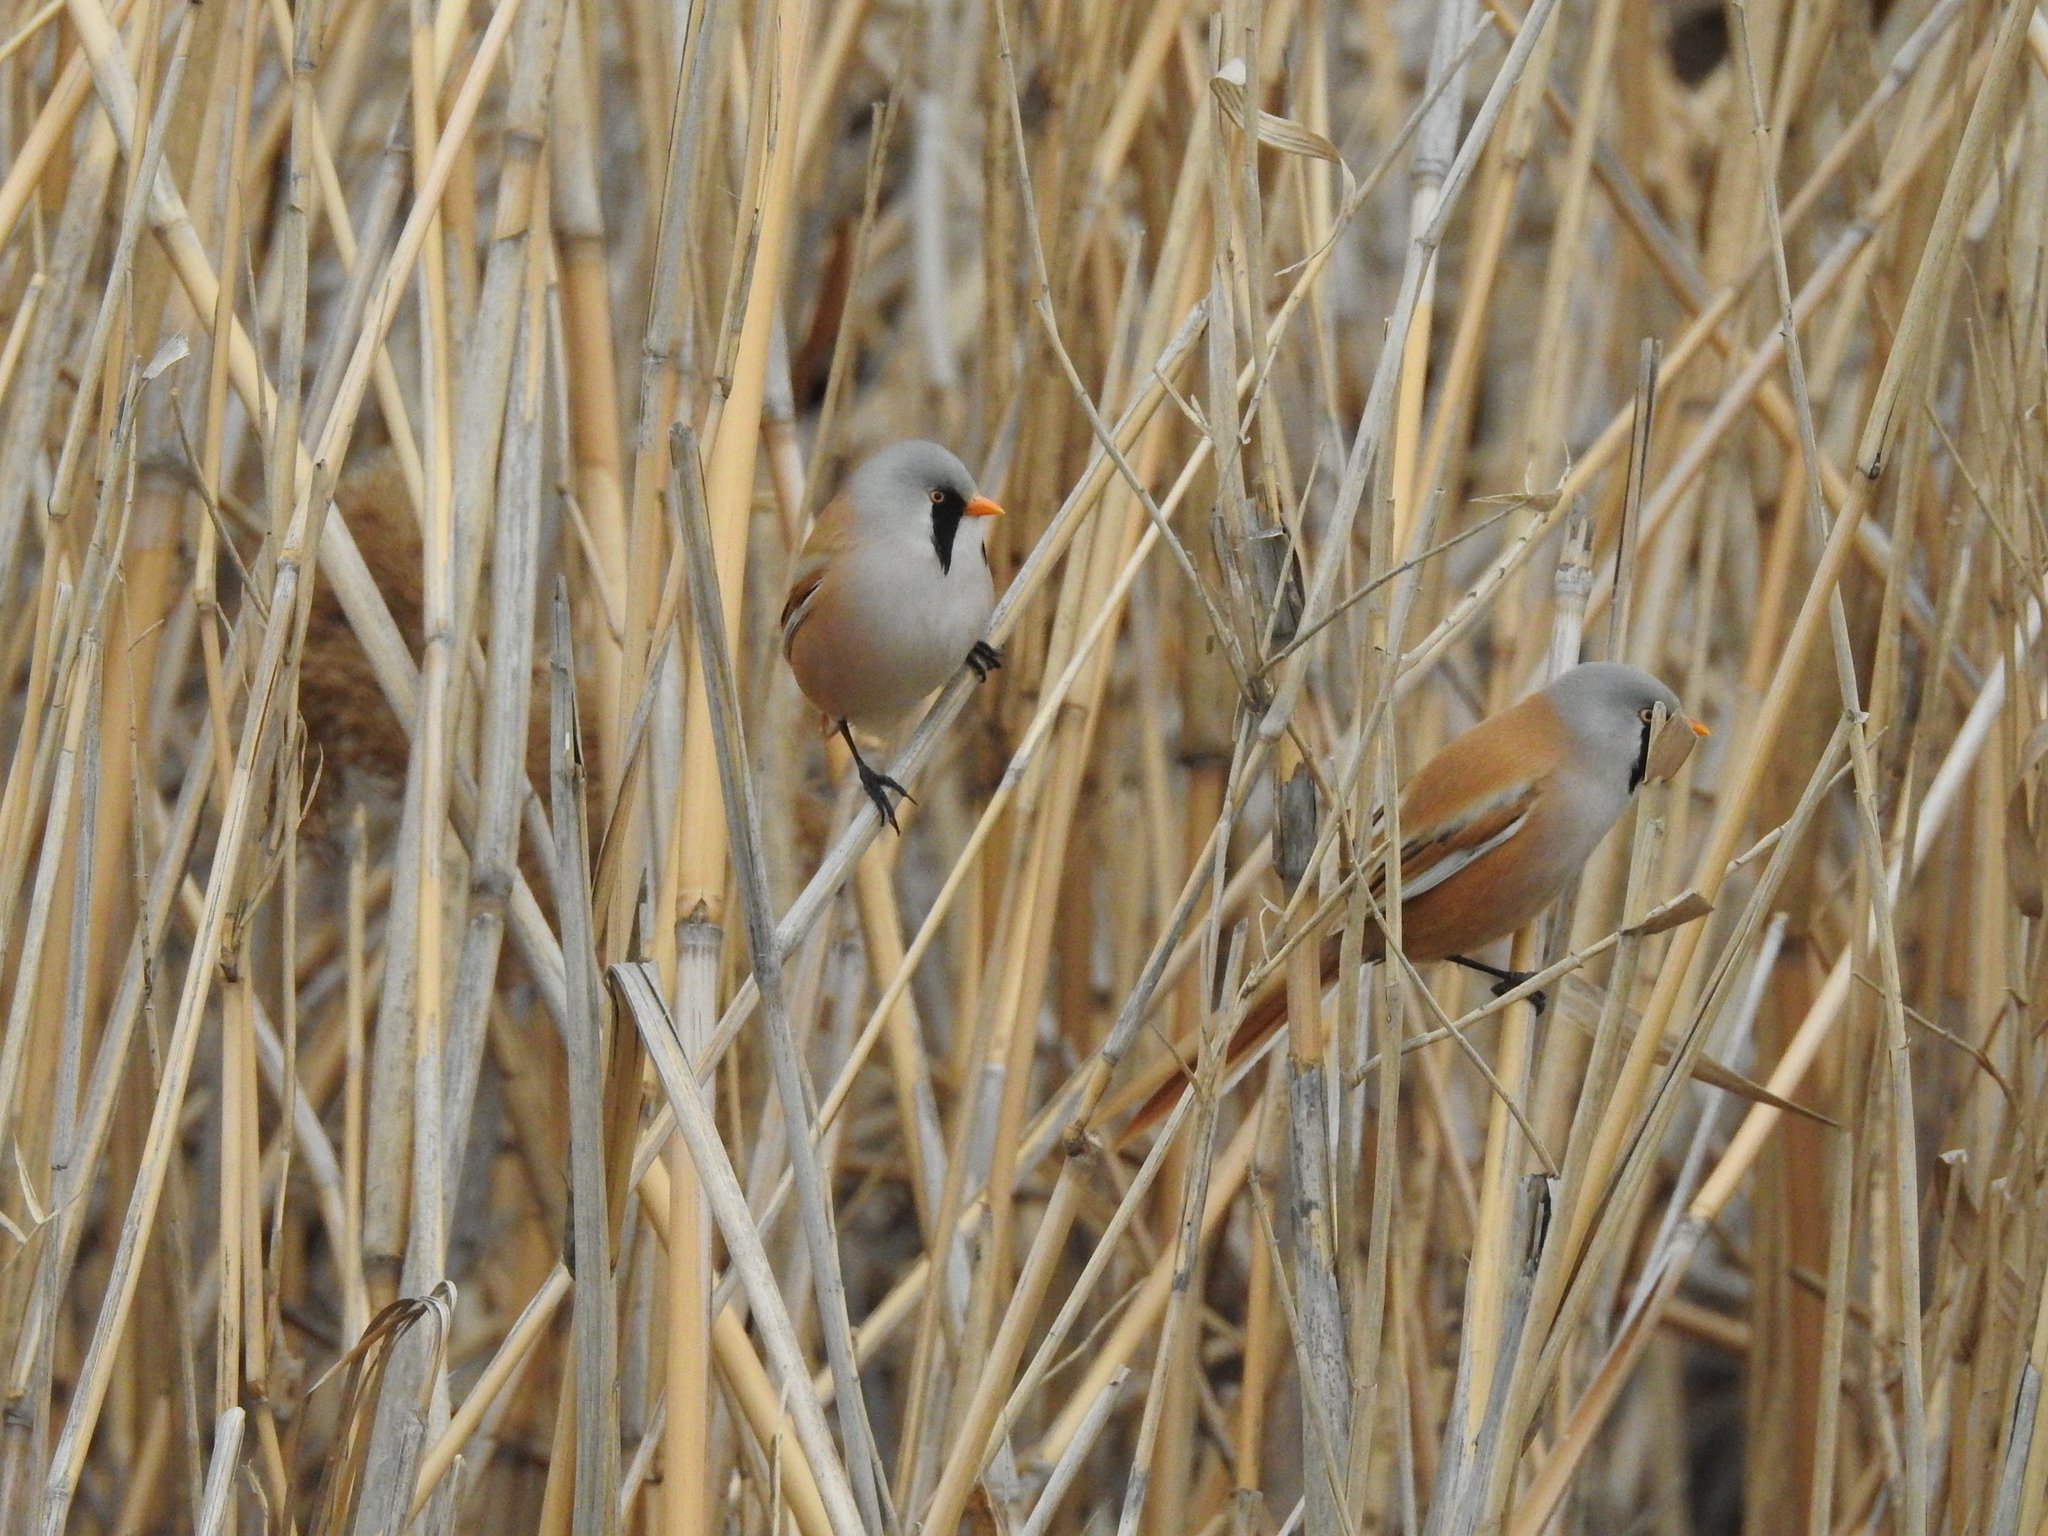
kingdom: Animalia
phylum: Chordata
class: Aves
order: Passeriformes
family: Panuridae
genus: Panurus
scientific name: Panurus biarmicus
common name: Bearded reedling
